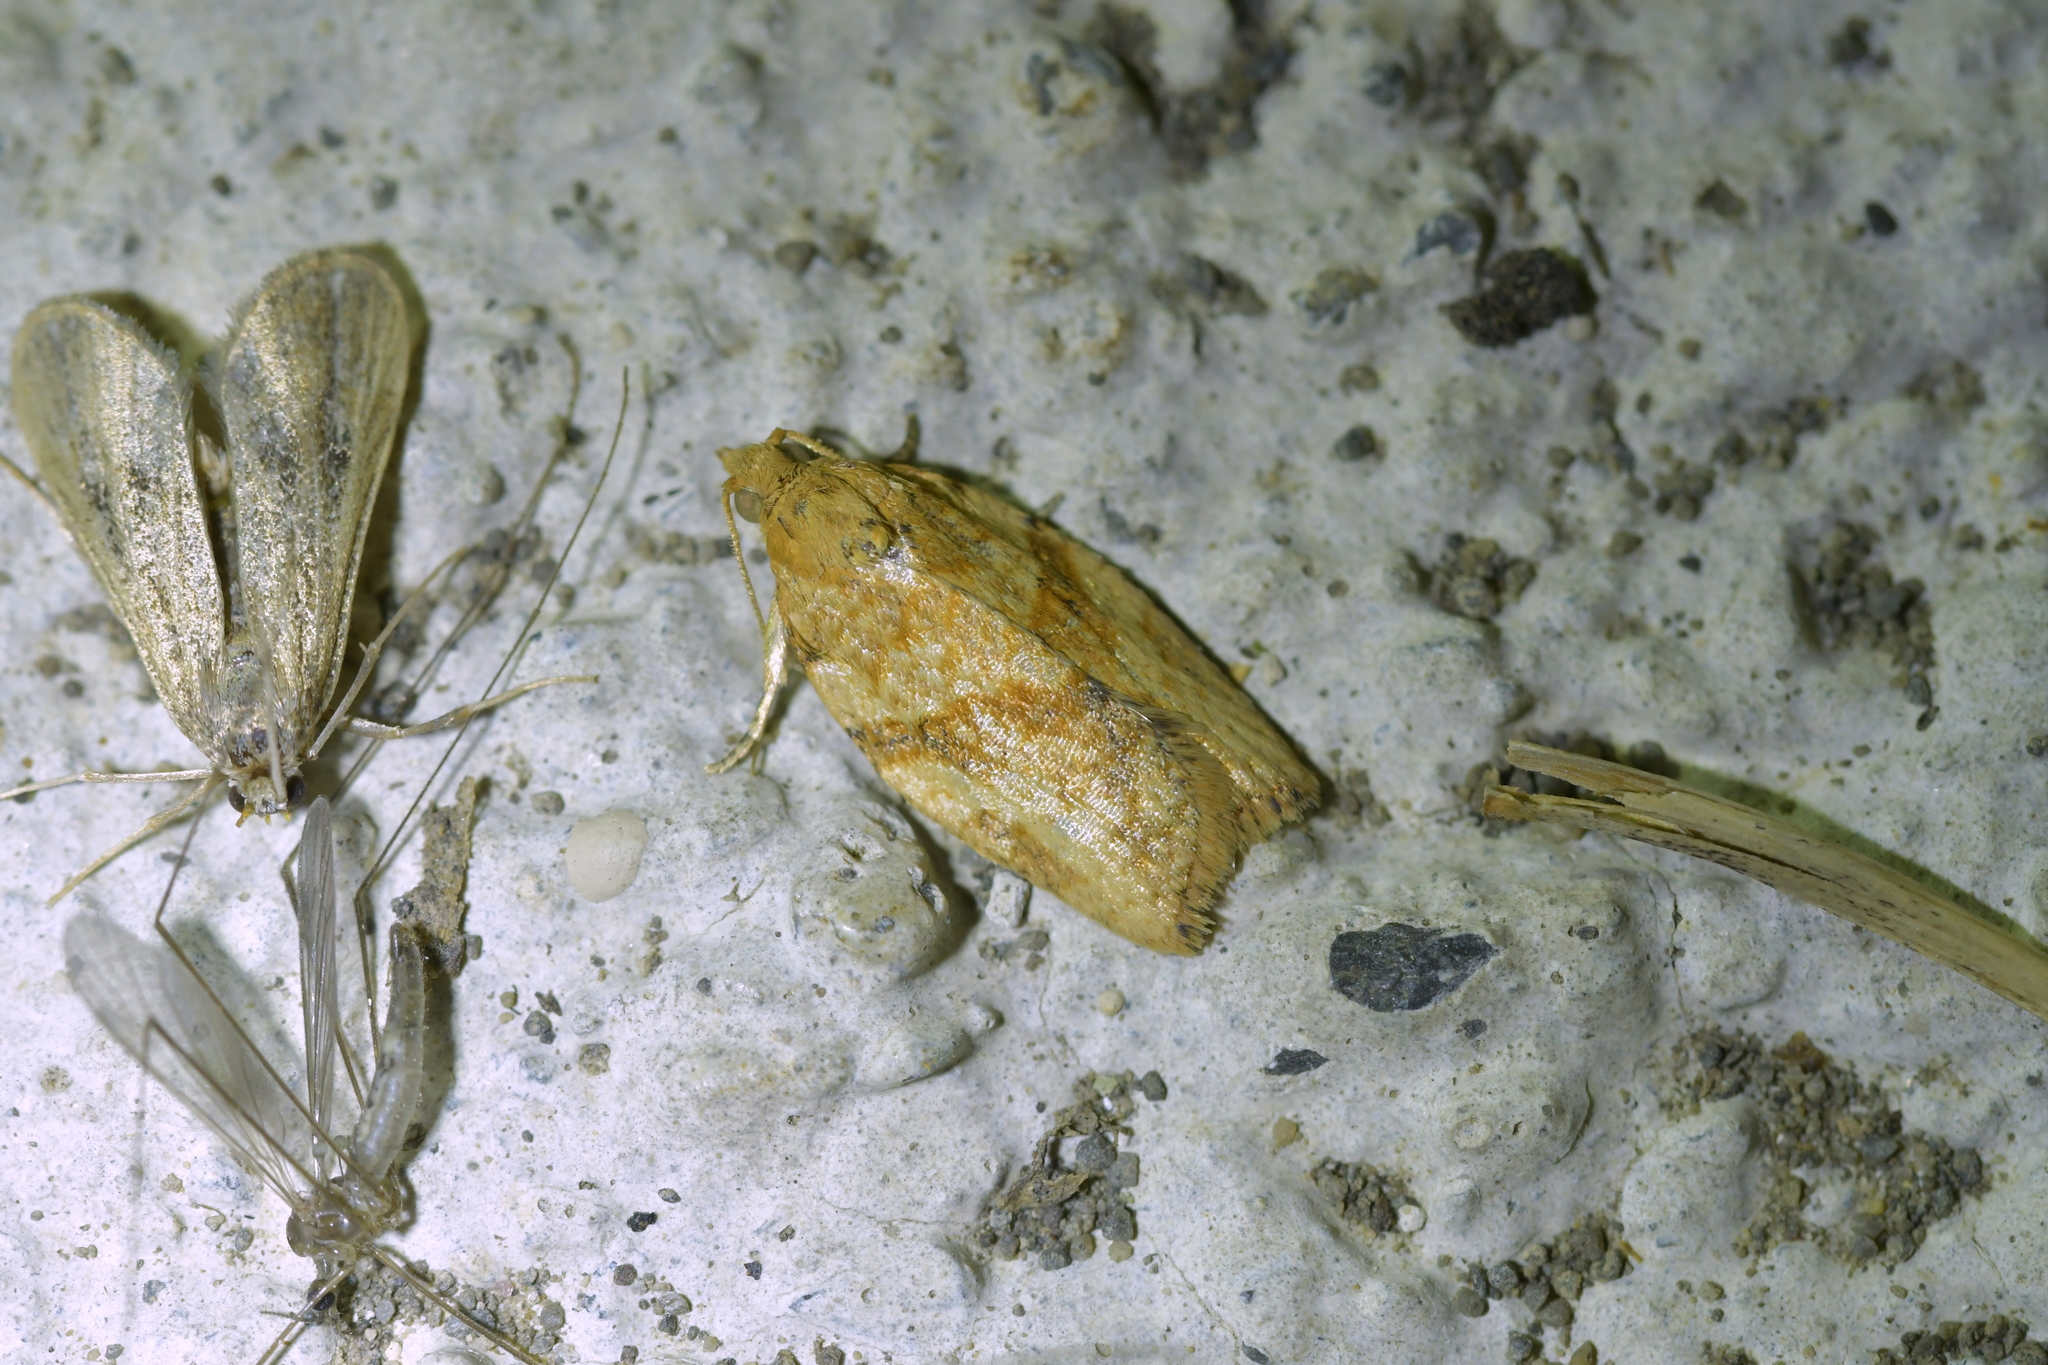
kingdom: Animalia
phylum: Arthropoda
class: Insecta
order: Lepidoptera
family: Tortricidae
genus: Epiphyas
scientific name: Epiphyas postvittana
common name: Light brown apple moth
